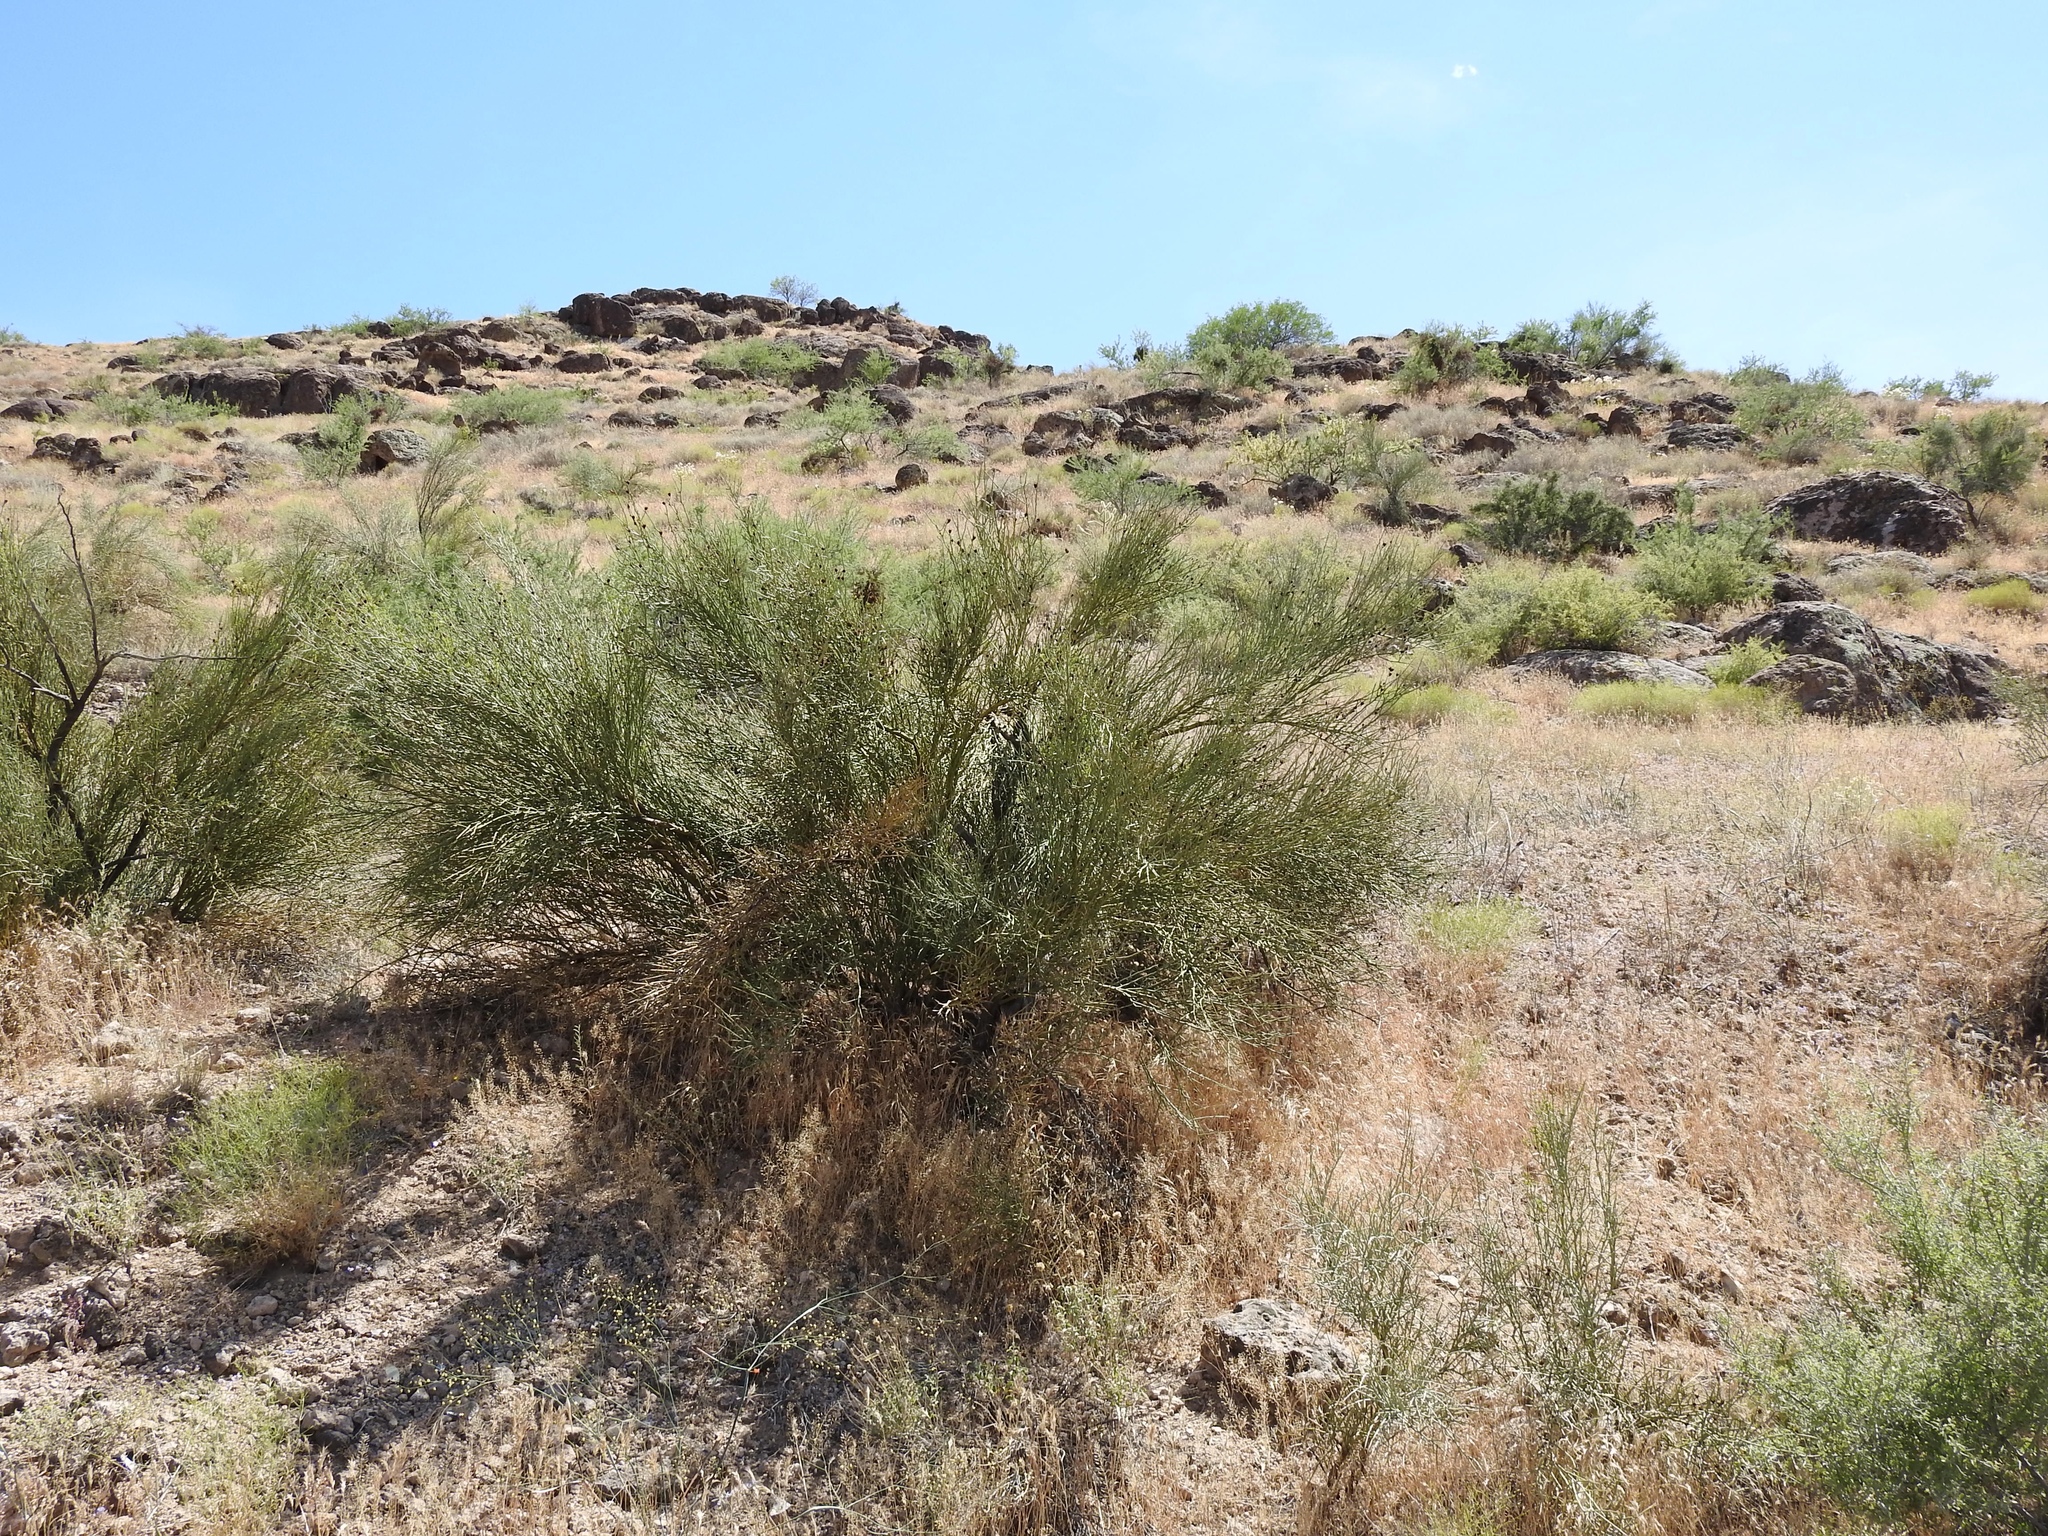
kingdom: Plantae
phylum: Tracheophyta
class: Magnoliopsida
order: Celastrales
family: Celastraceae
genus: Canotia
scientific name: Canotia holacantha
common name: Crucifixion thorns
